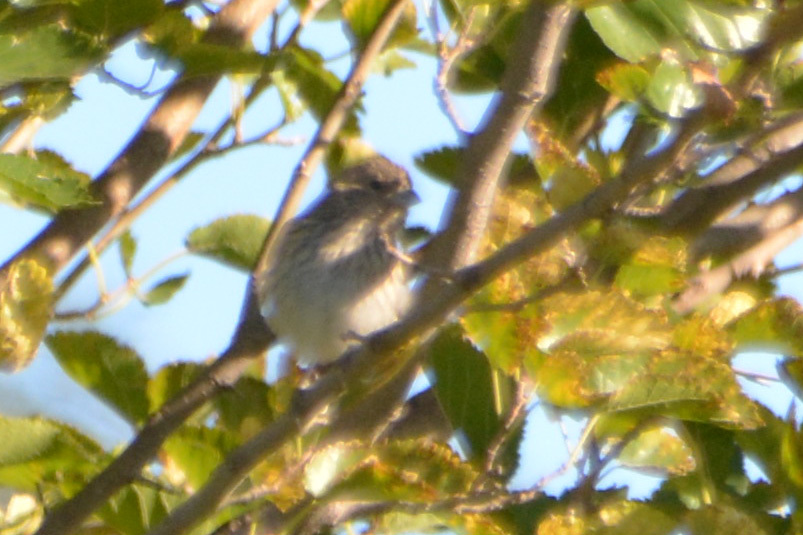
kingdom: Animalia
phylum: Chordata
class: Aves
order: Passeriformes
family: Thraupidae
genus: Sicalis
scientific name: Sicalis flaveola
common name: Saffron finch
